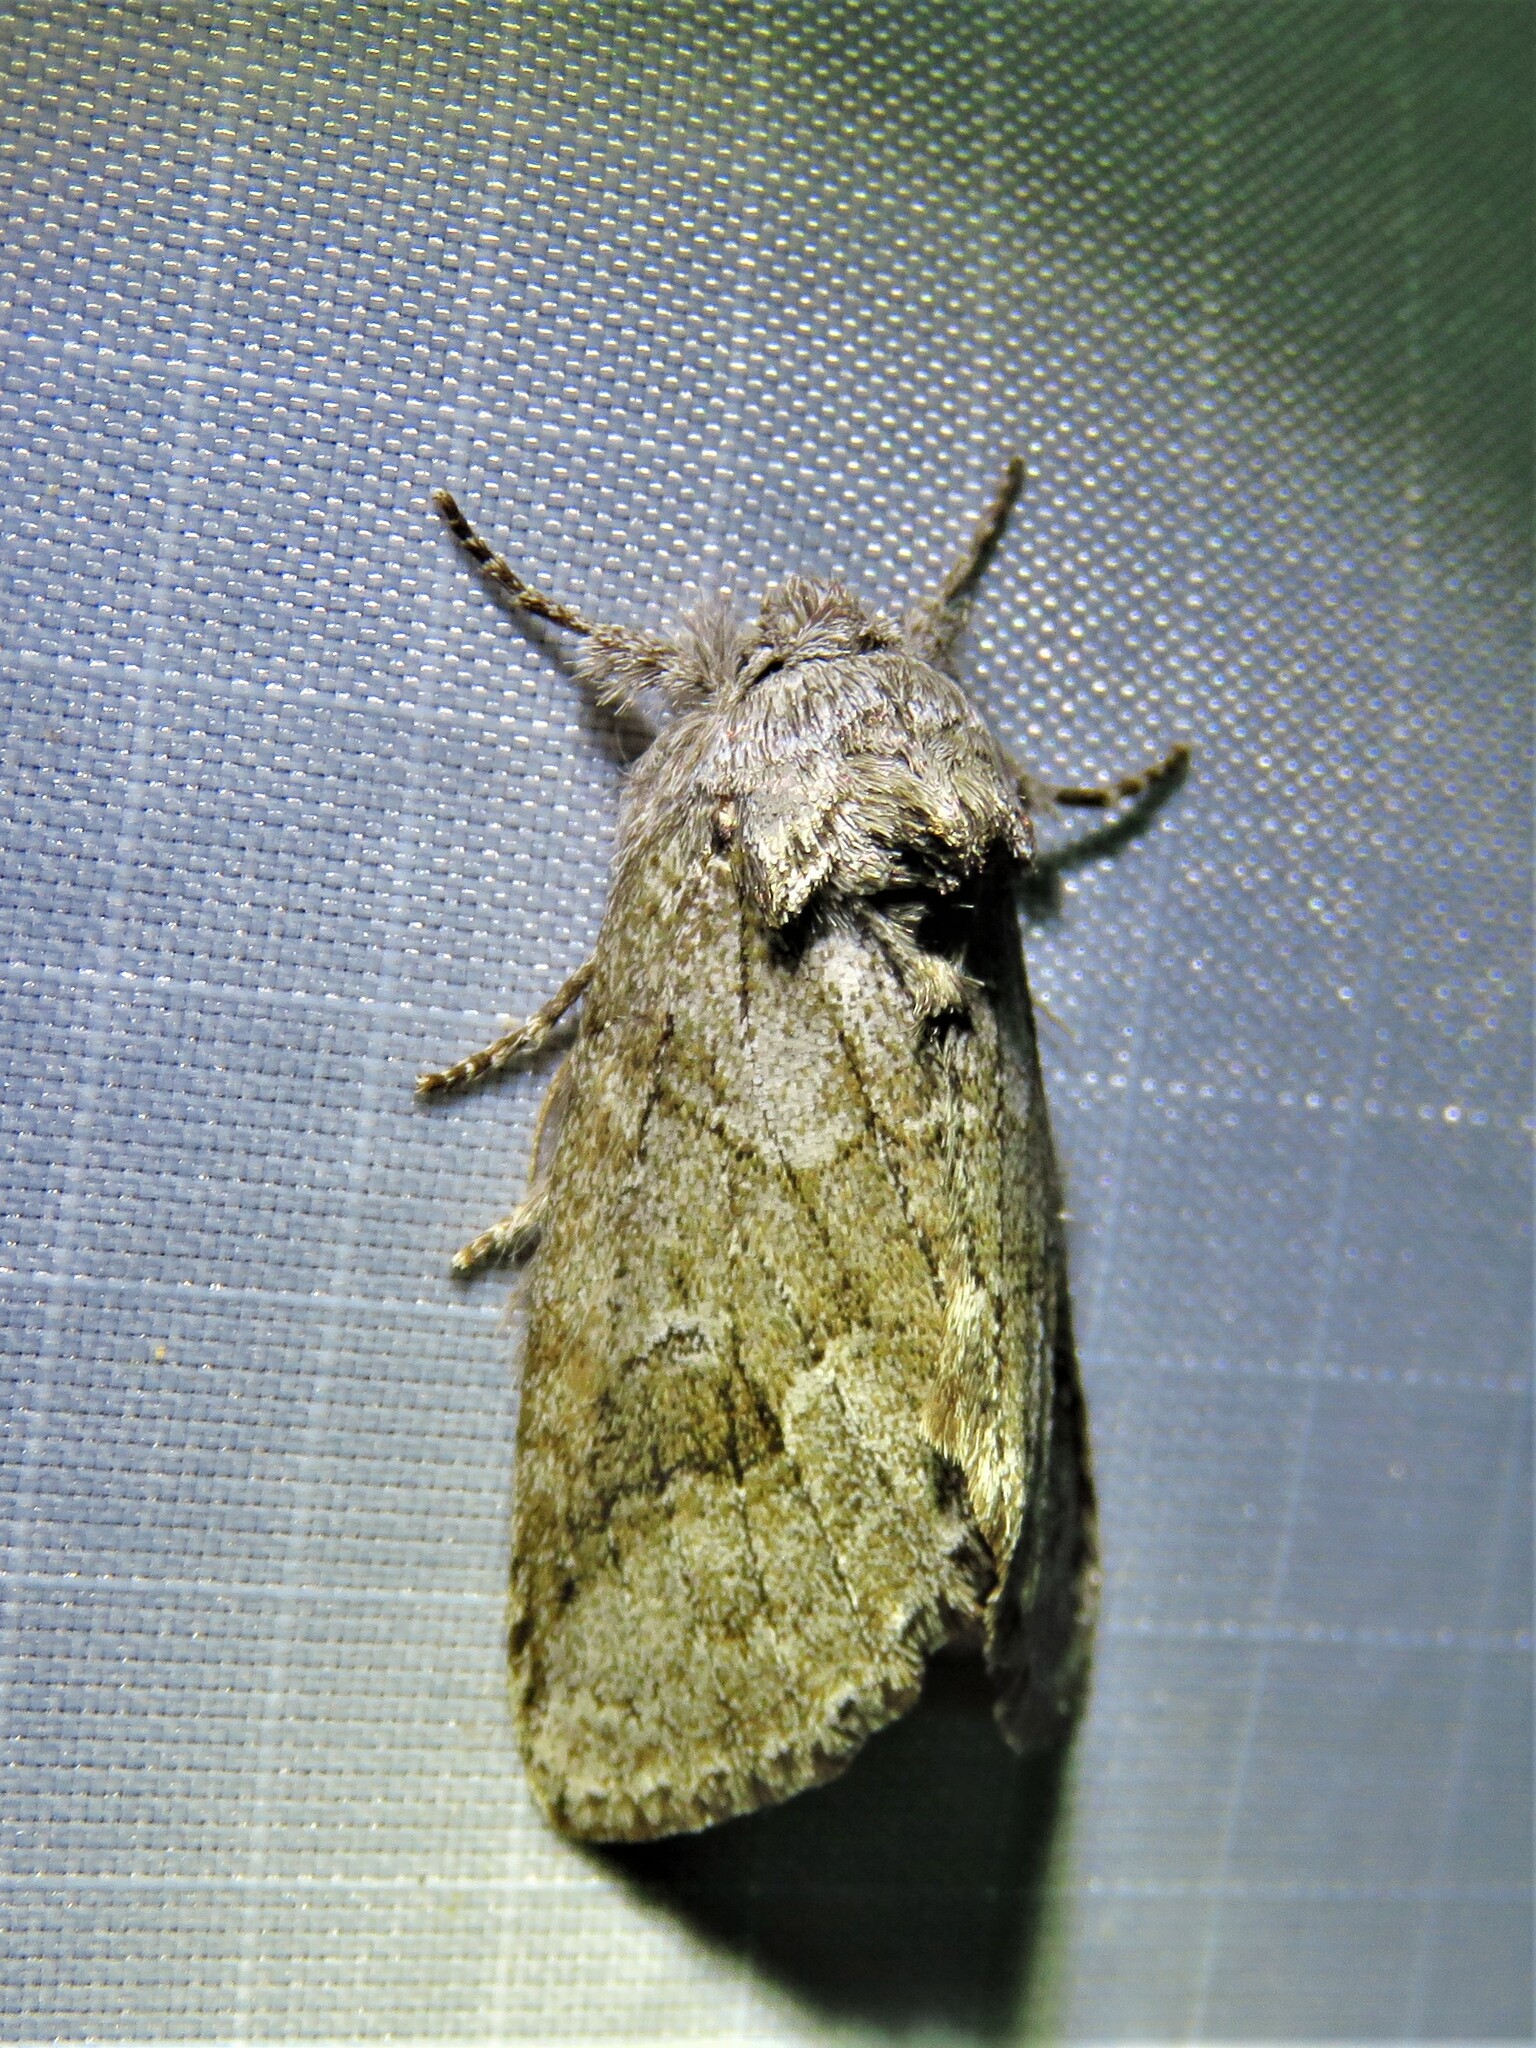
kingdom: Animalia
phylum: Arthropoda
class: Insecta
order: Lepidoptera
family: Notodontidae
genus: Lochmaeus
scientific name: Lochmaeus bilineata
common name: Double-lined prominent
